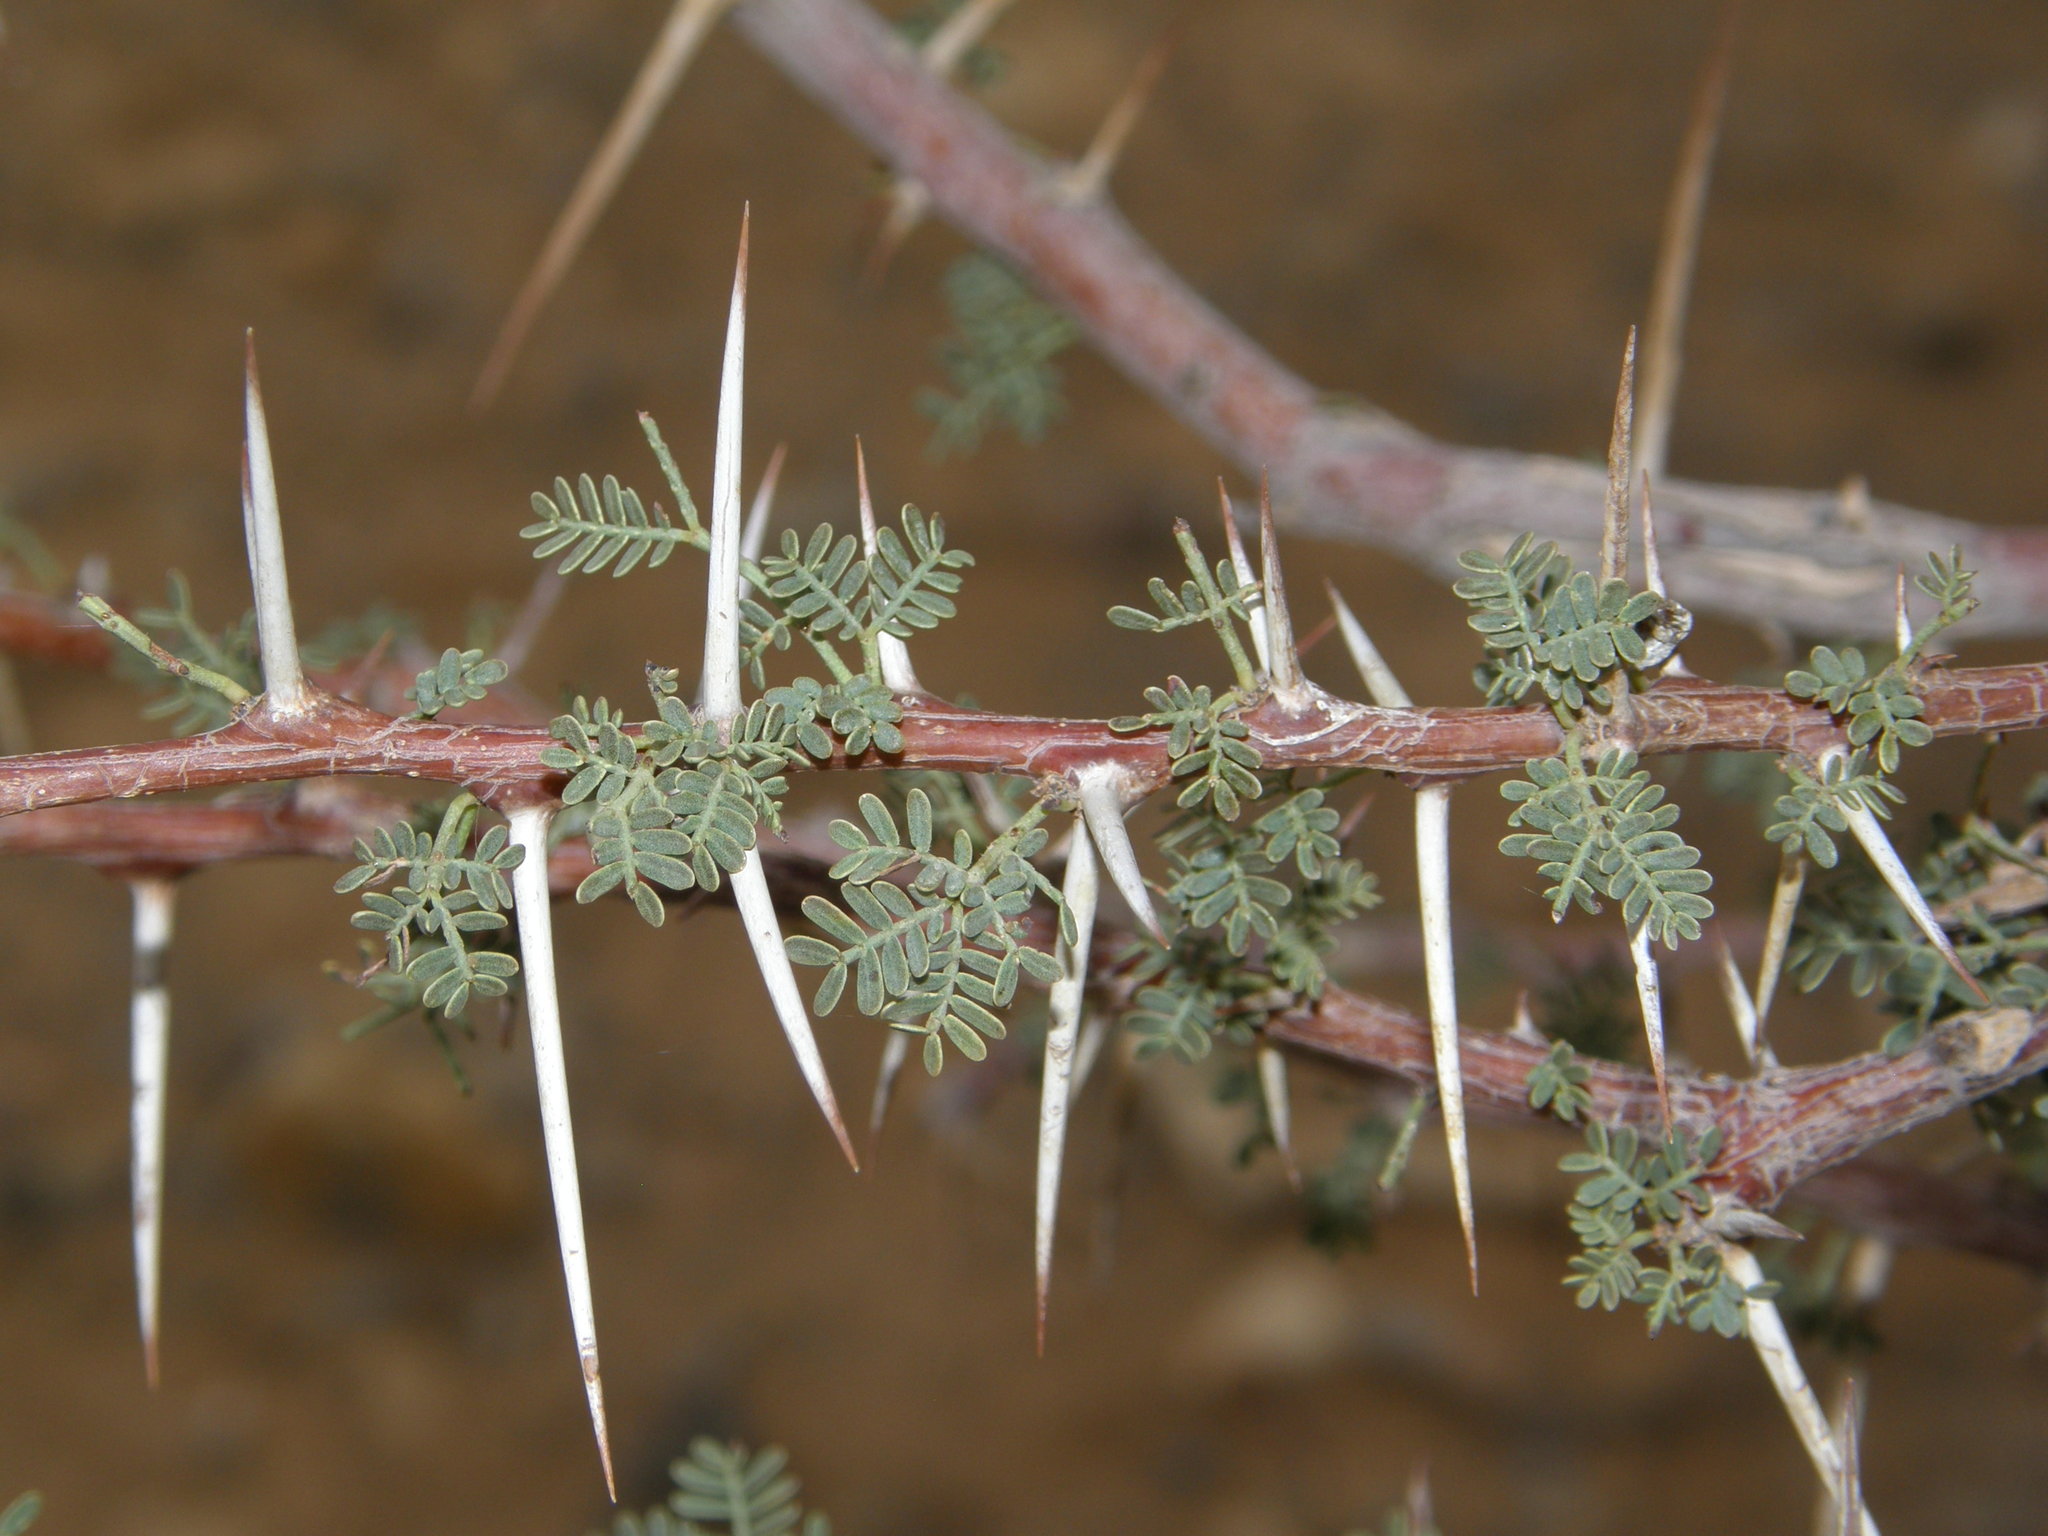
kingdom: Plantae
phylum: Tracheophyta
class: Magnoliopsida
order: Fabales
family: Fabaceae
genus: Vachellia
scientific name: Vachellia tortilis
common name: Umbrella thorn acacia
